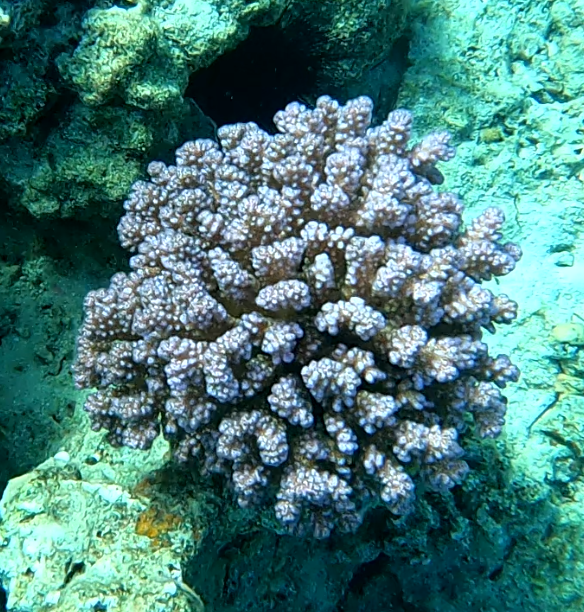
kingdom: Animalia
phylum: Cnidaria
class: Anthozoa
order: Scleractinia
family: Pocilloporidae
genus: Pocillopora
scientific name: Pocillopora verrucosa
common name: Cauliflower coral
